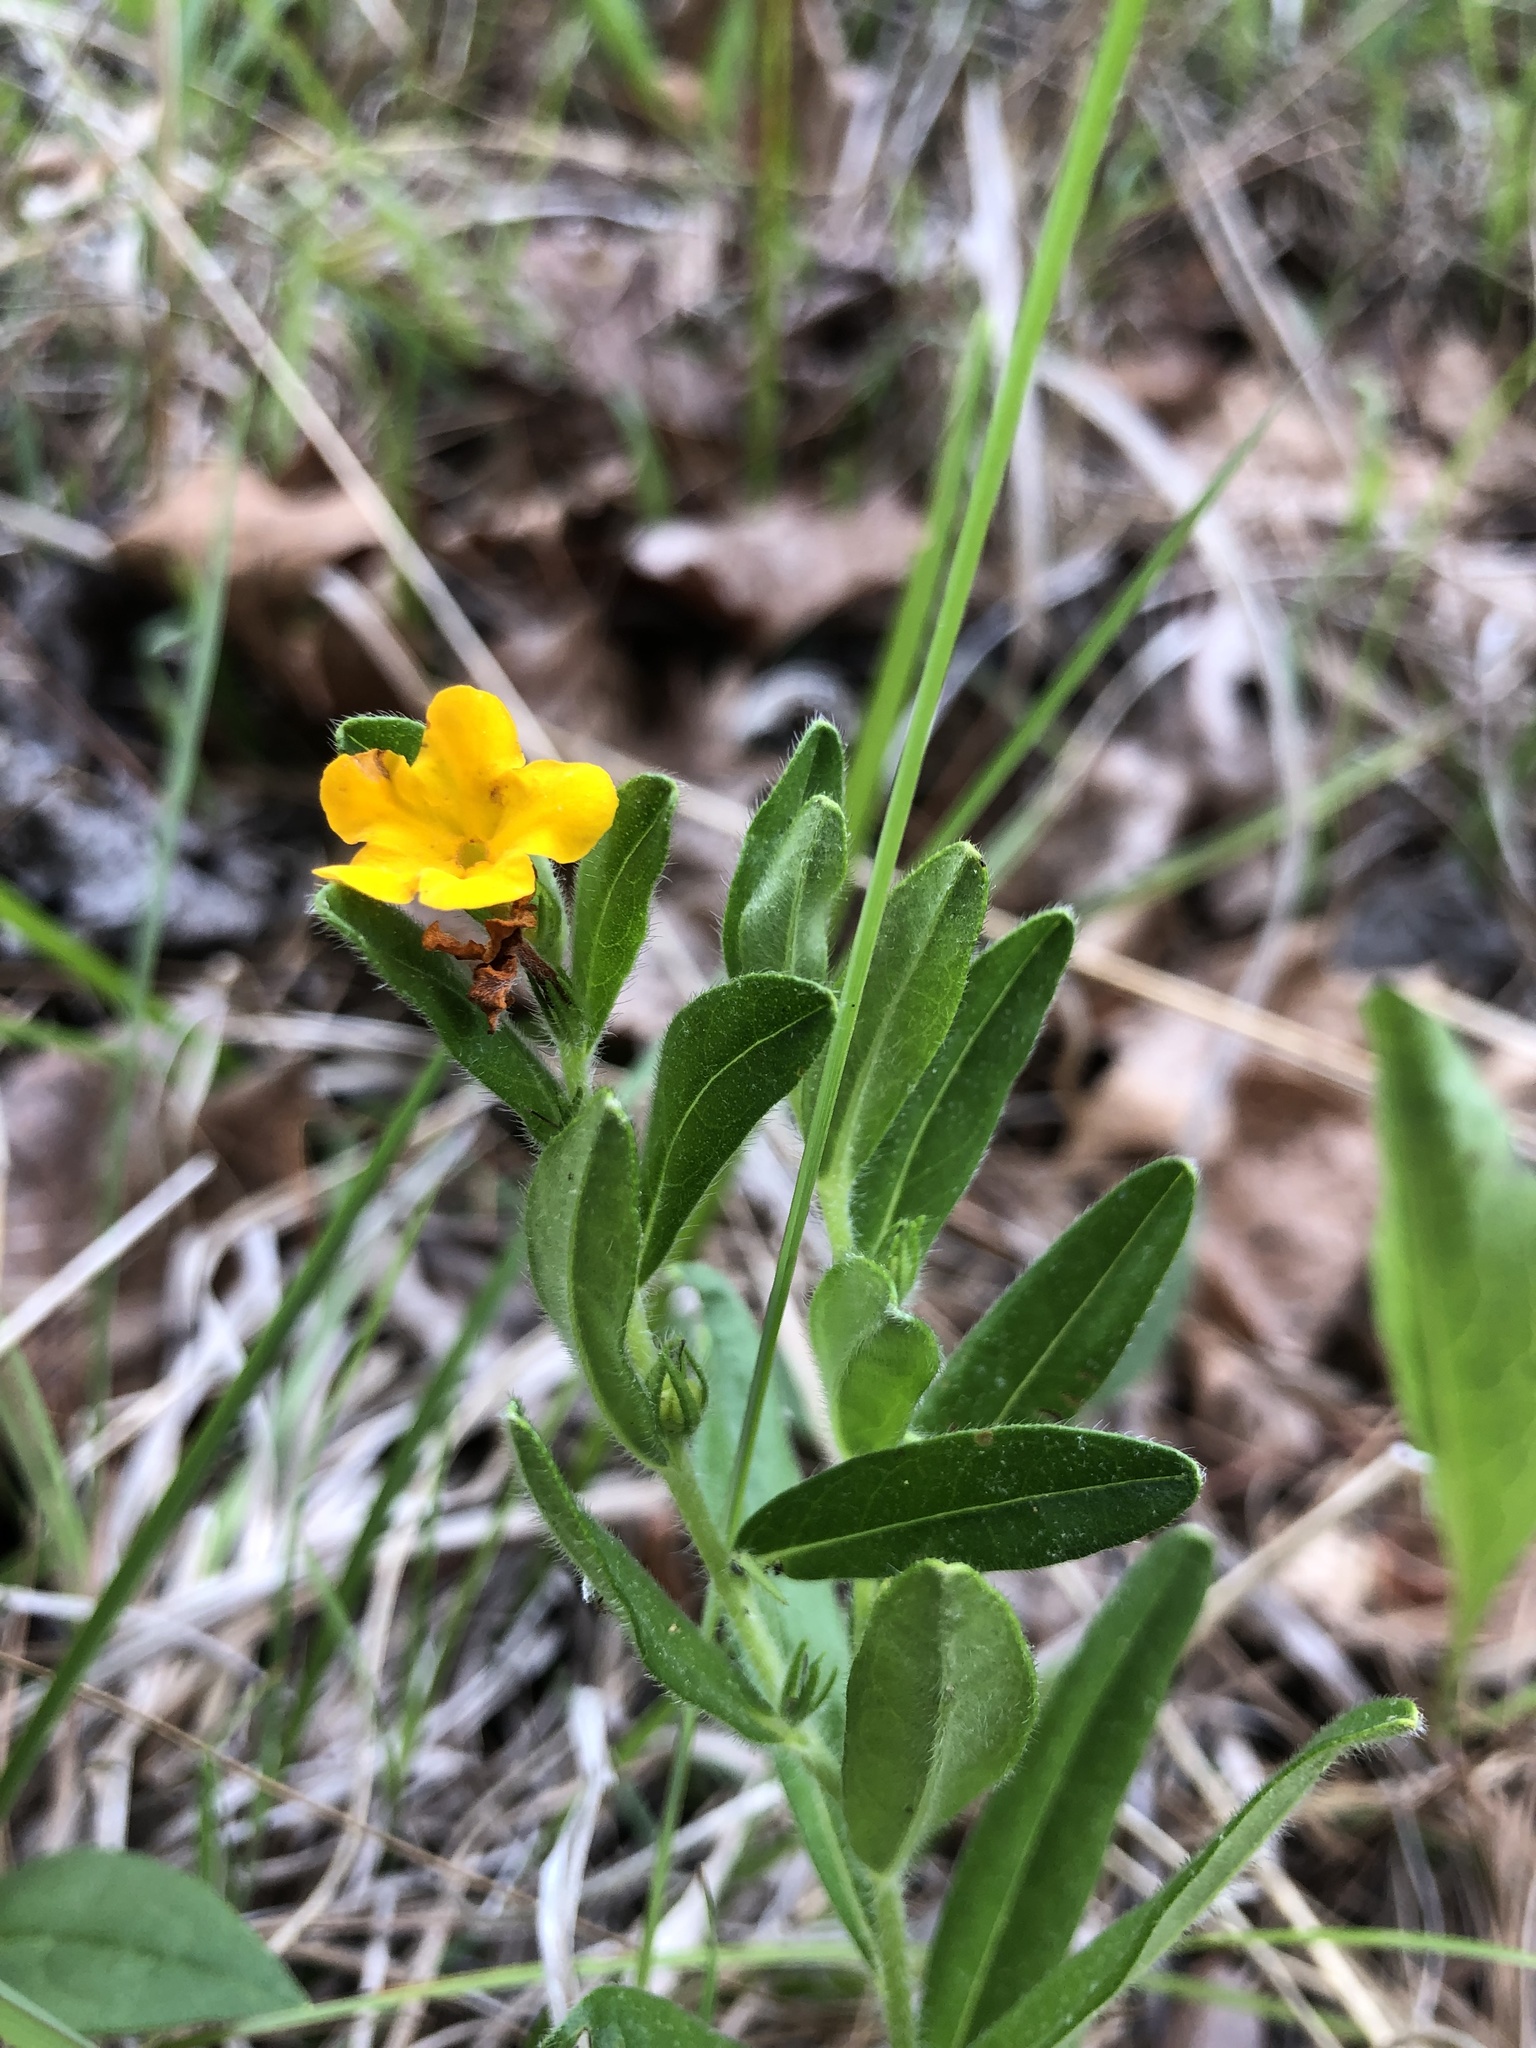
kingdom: Plantae
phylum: Tracheophyta
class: Magnoliopsida
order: Boraginales
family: Boraginaceae
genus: Lithospermum
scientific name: Lithospermum canescens
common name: Hoary puccoon
